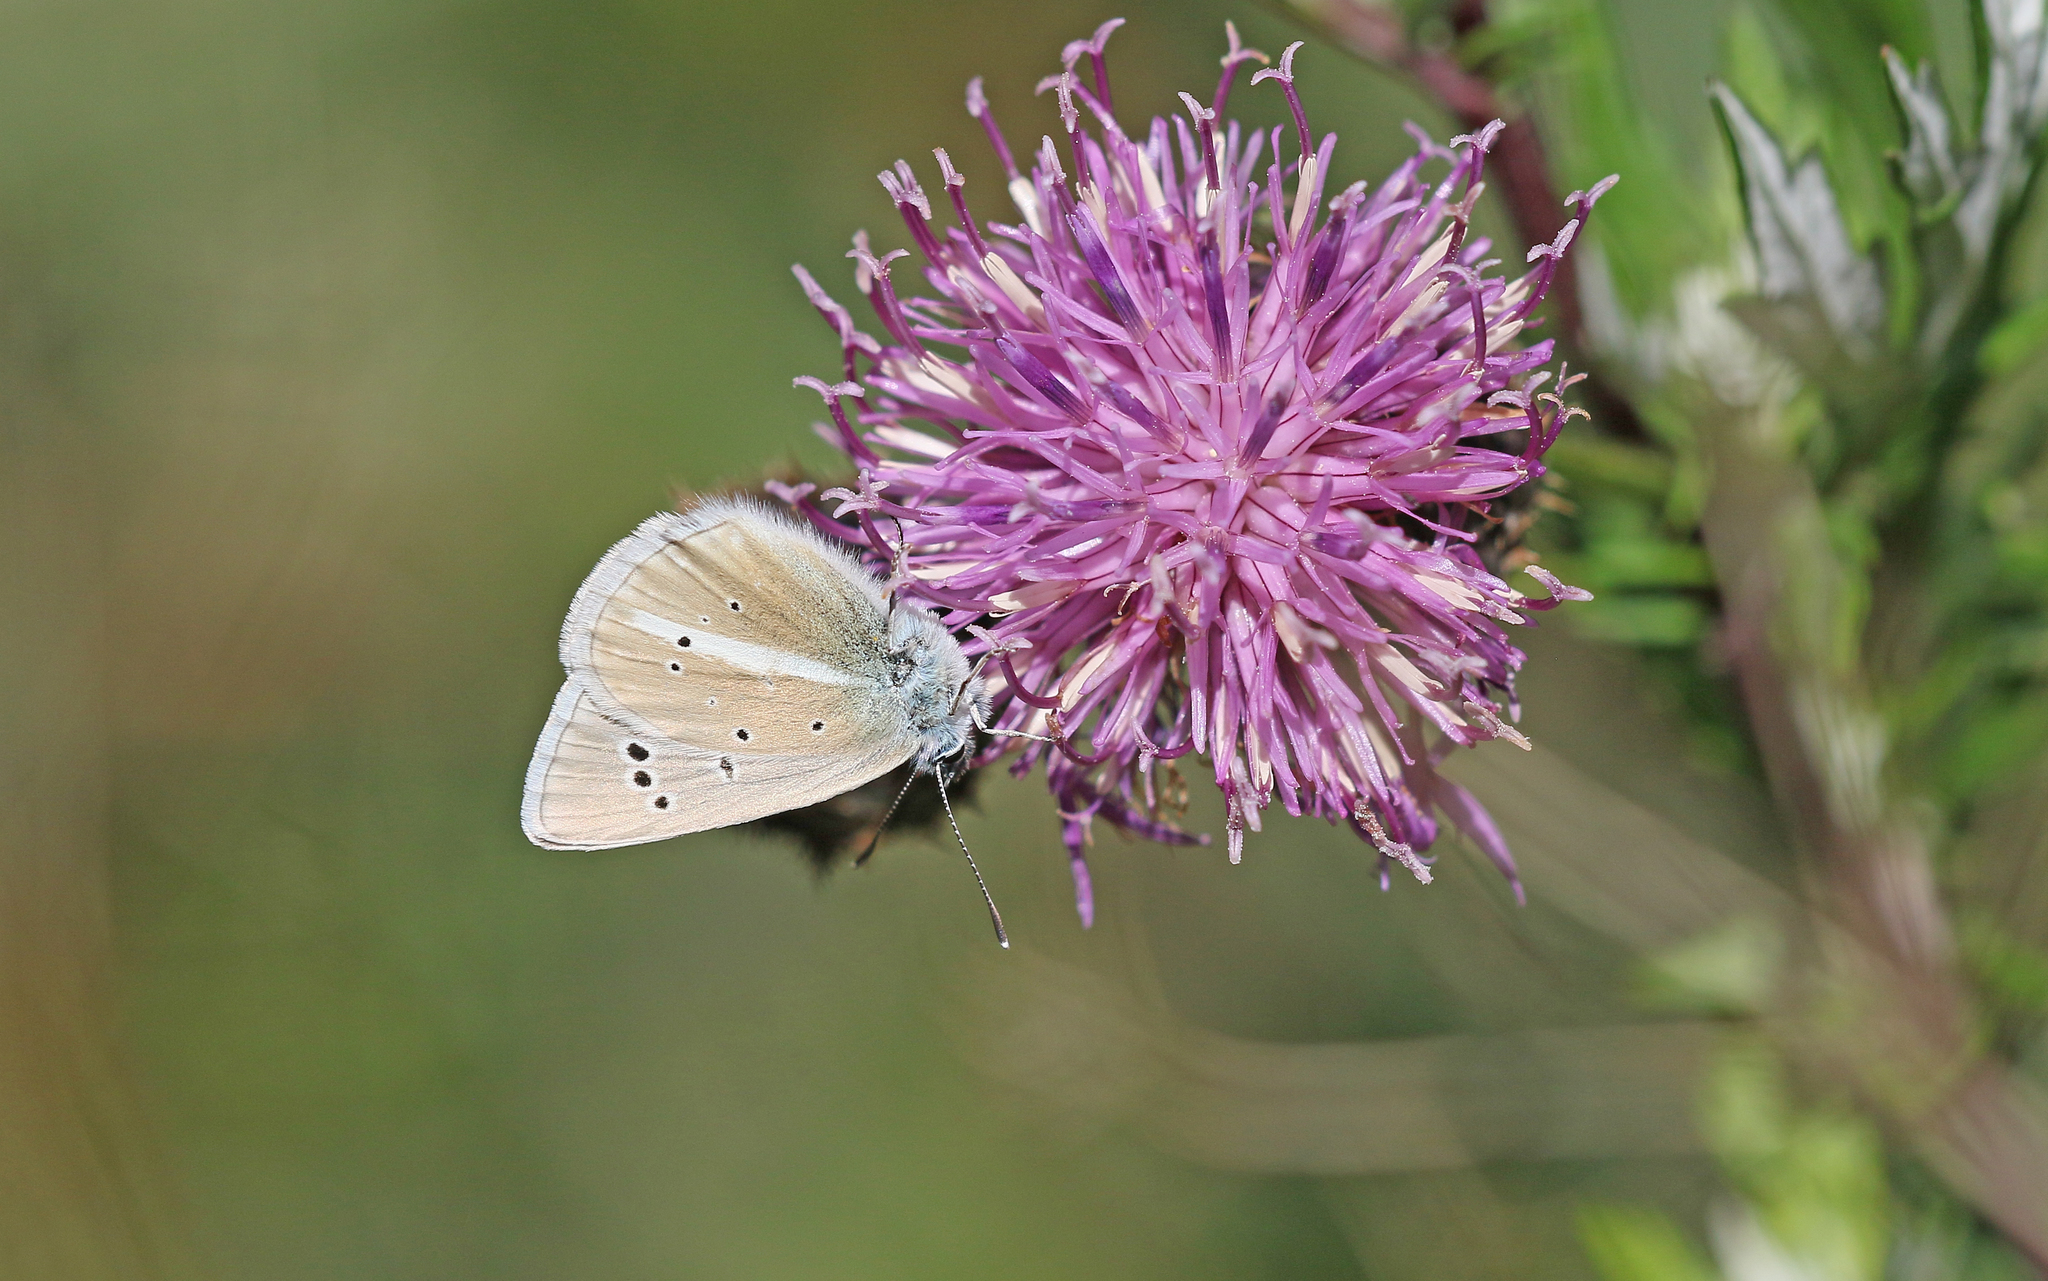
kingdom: Animalia
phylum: Arthropoda
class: Insecta
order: Lepidoptera
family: Lycaenidae
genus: Agrodiaetus
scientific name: Agrodiaetus damon
